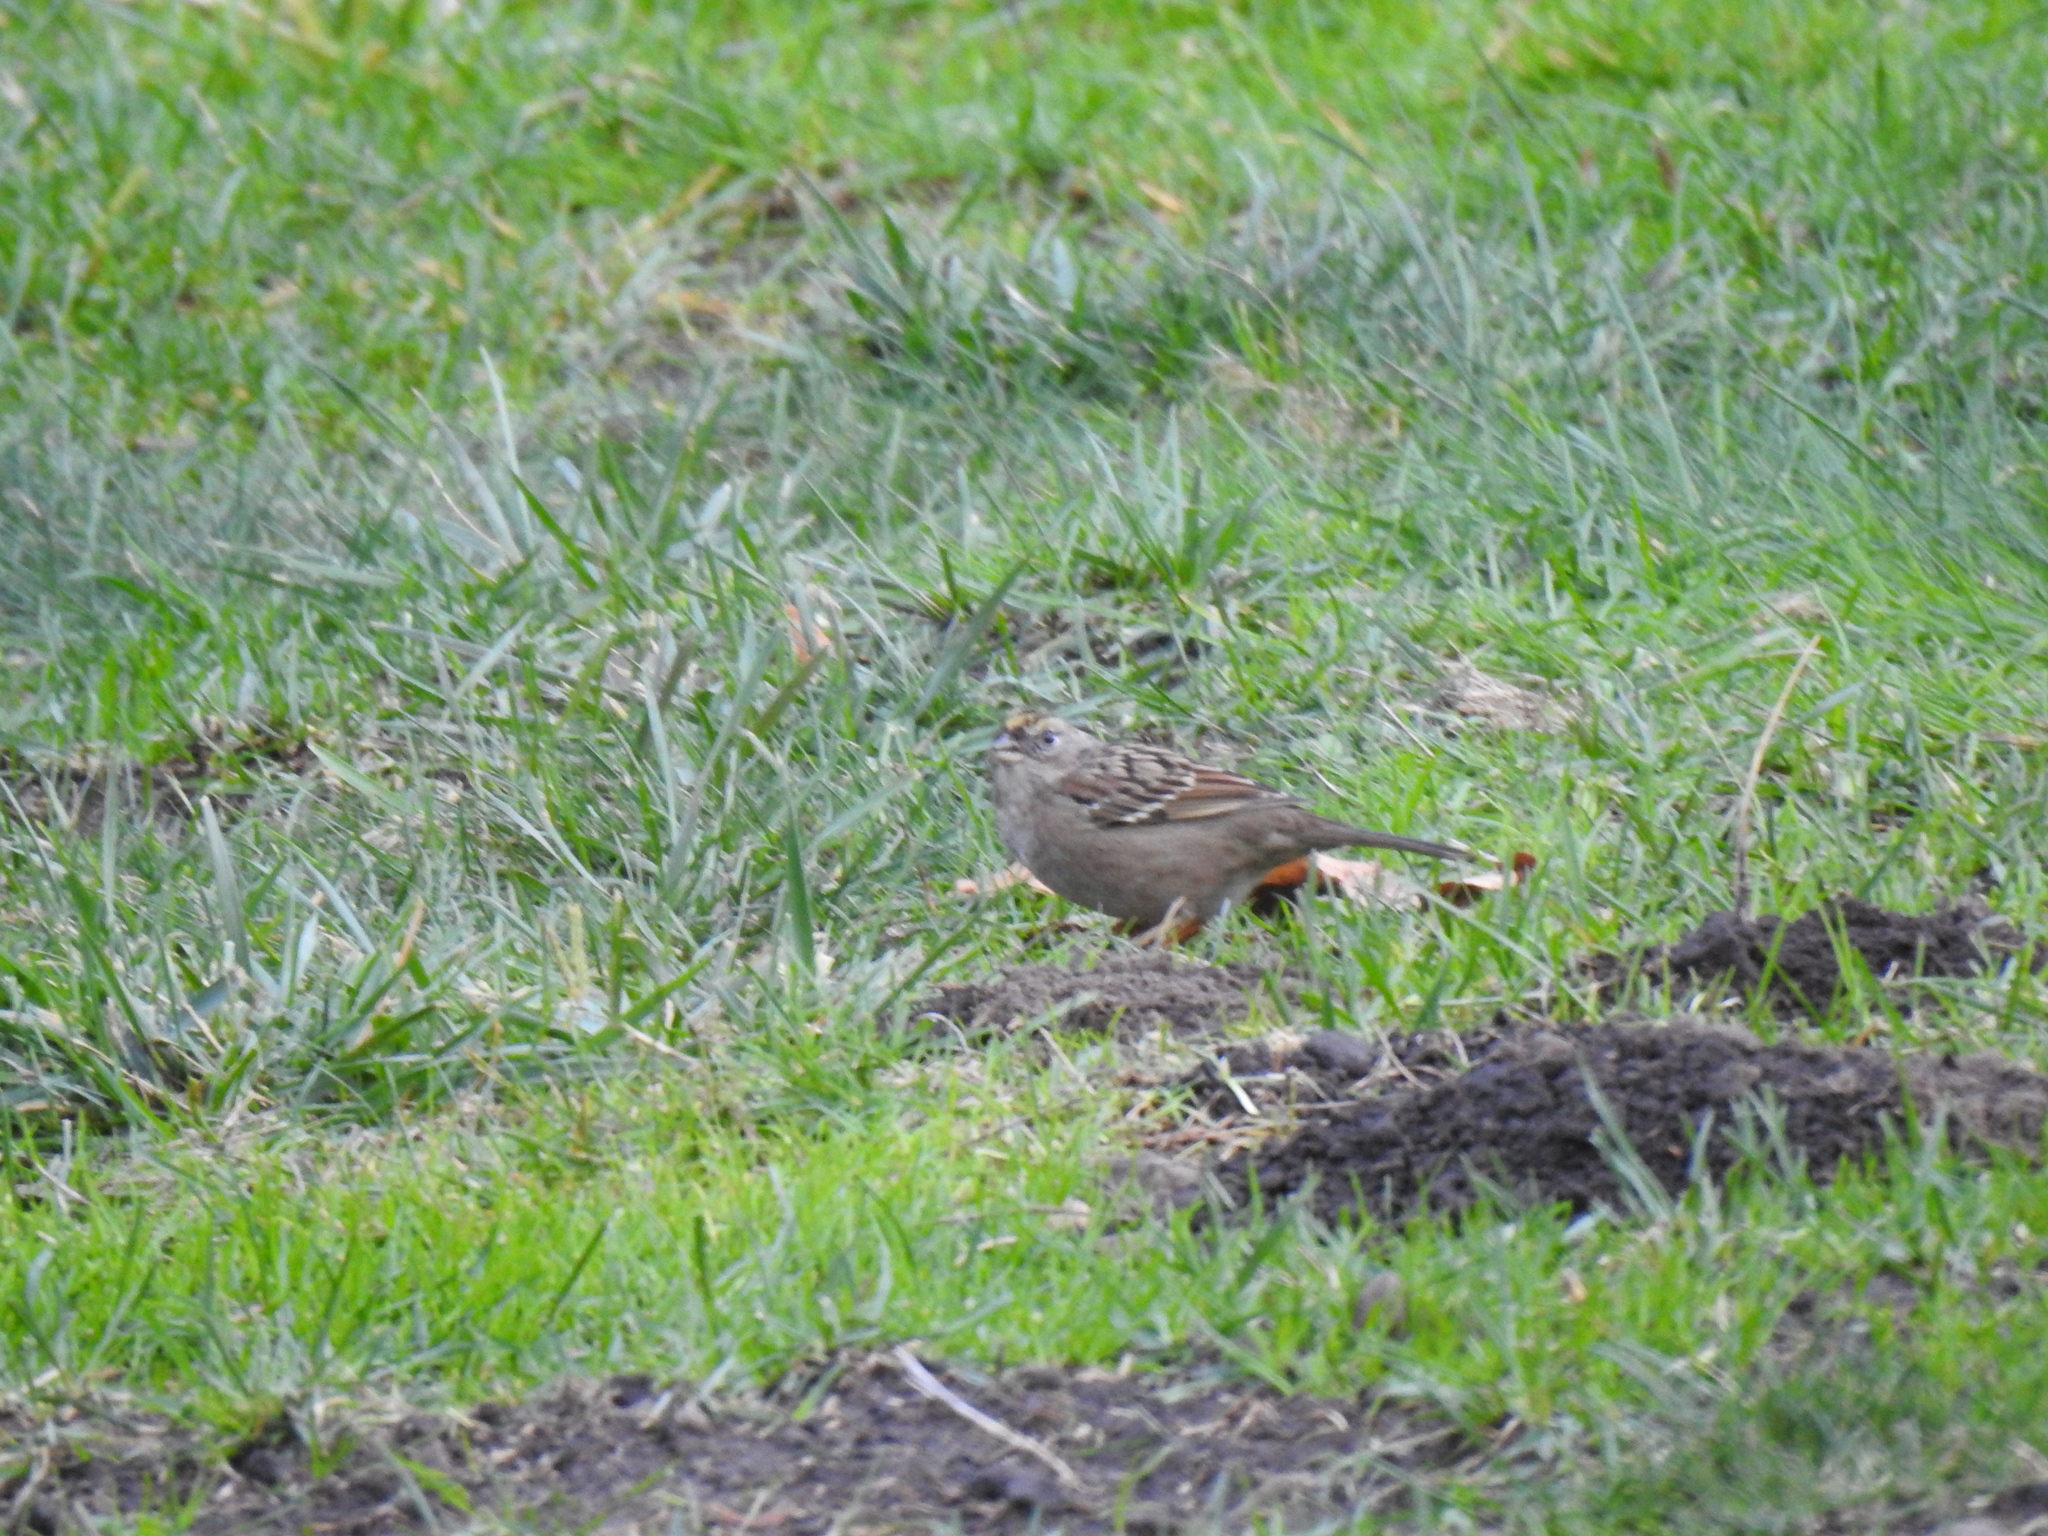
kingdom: Animalia
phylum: Chordata
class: Aves
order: Passeriformes
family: Passerellidae
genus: Zonotrichia
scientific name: Zonotrichia atricapilla
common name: Golden-crowned sparrow
